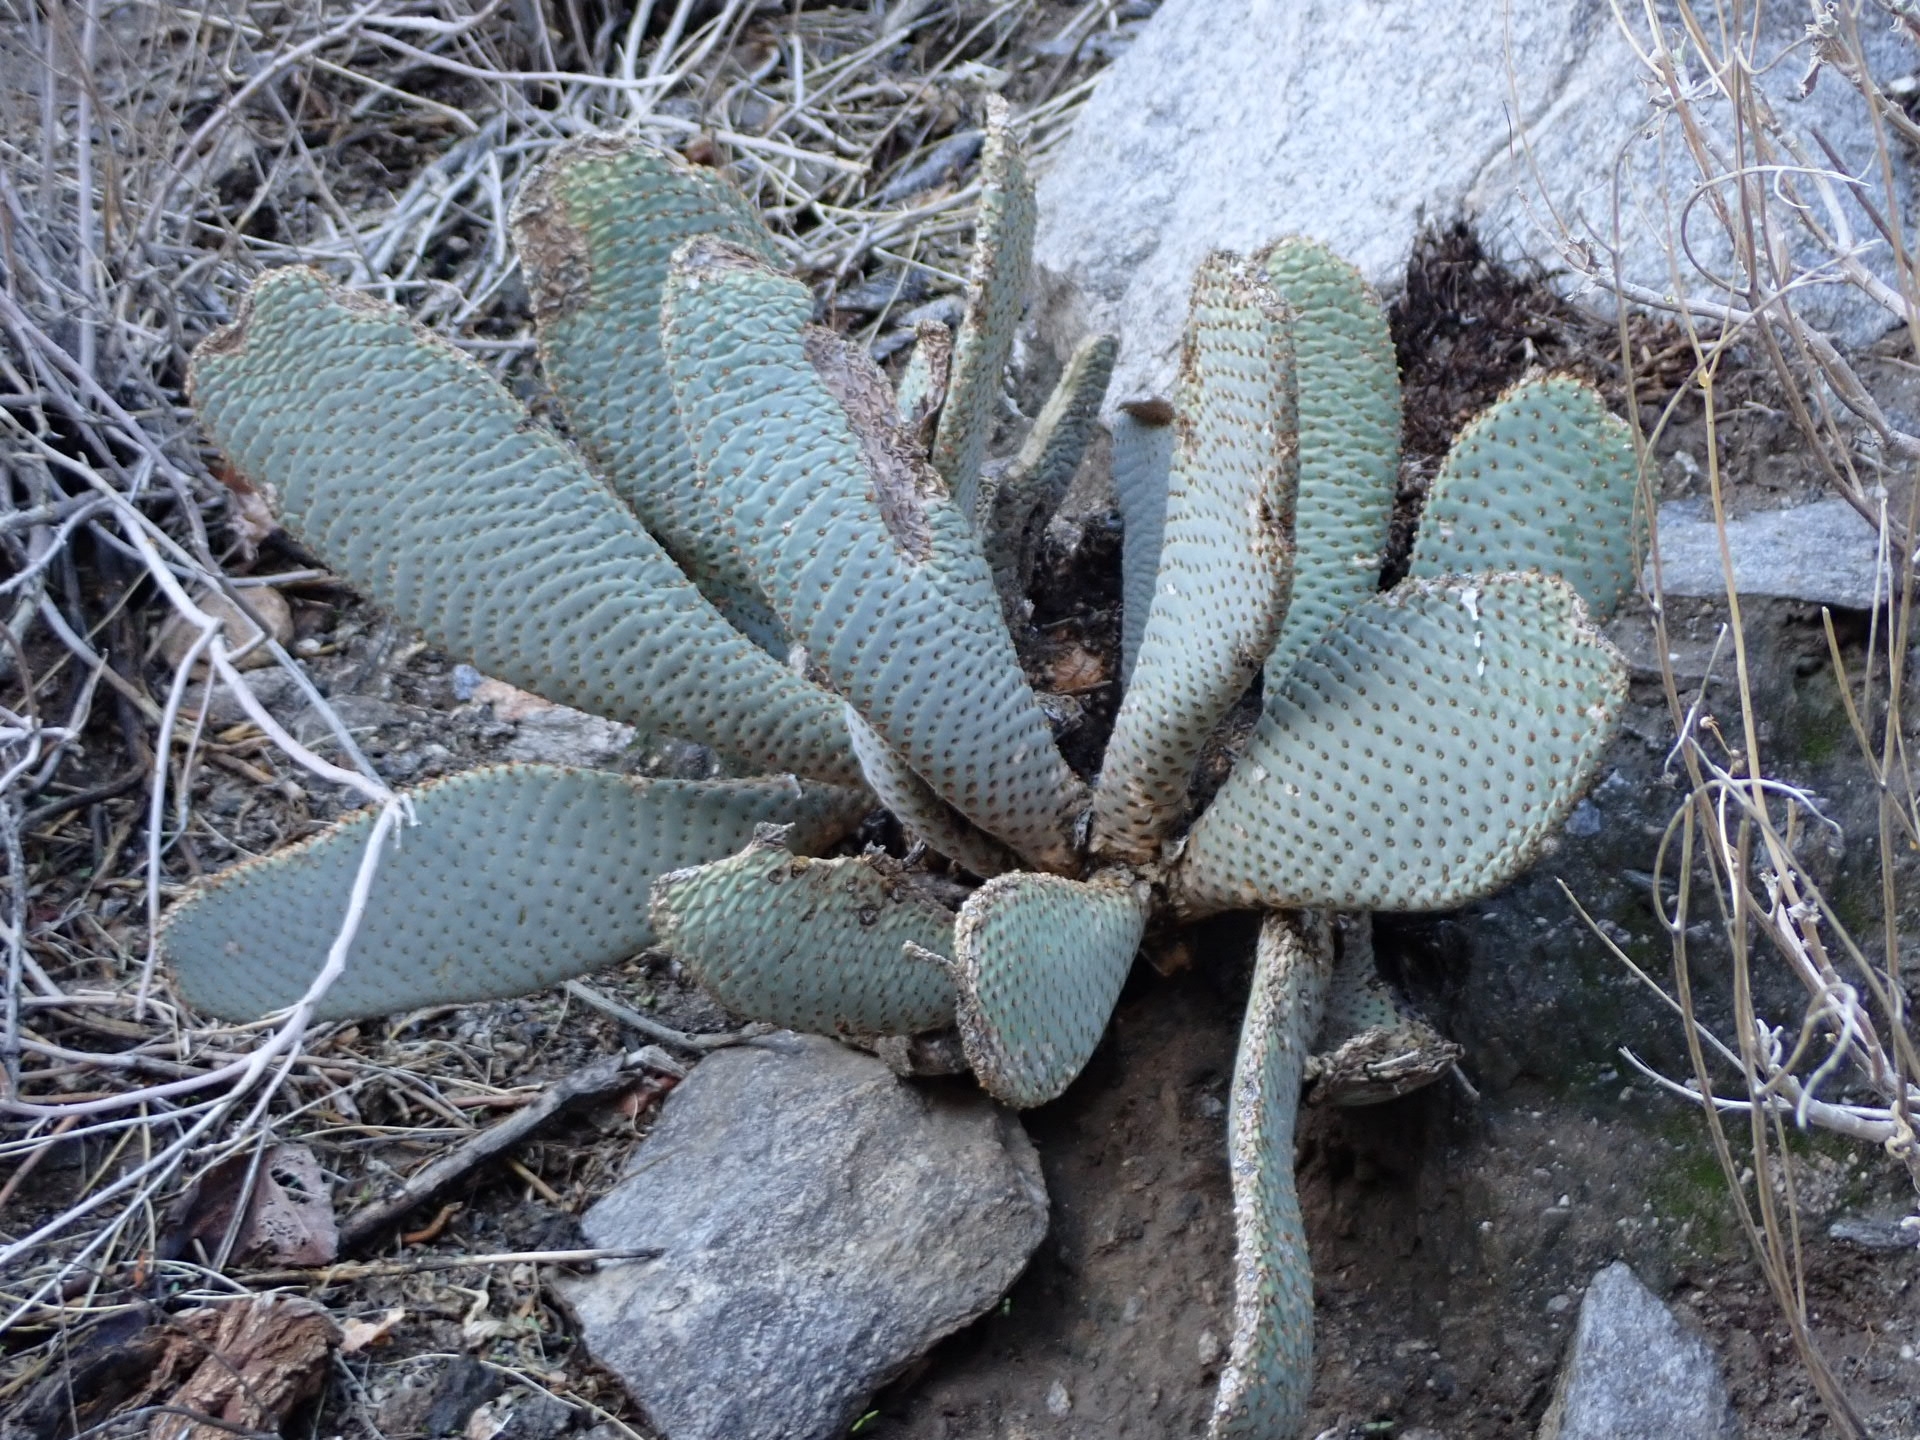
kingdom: Plantae
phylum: Tracheophyta
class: Magnoliopsida
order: Caryophyllales
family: Cactaceae
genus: Opuntia
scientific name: Opuntia basilaris
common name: Beavertail prickly-pear
